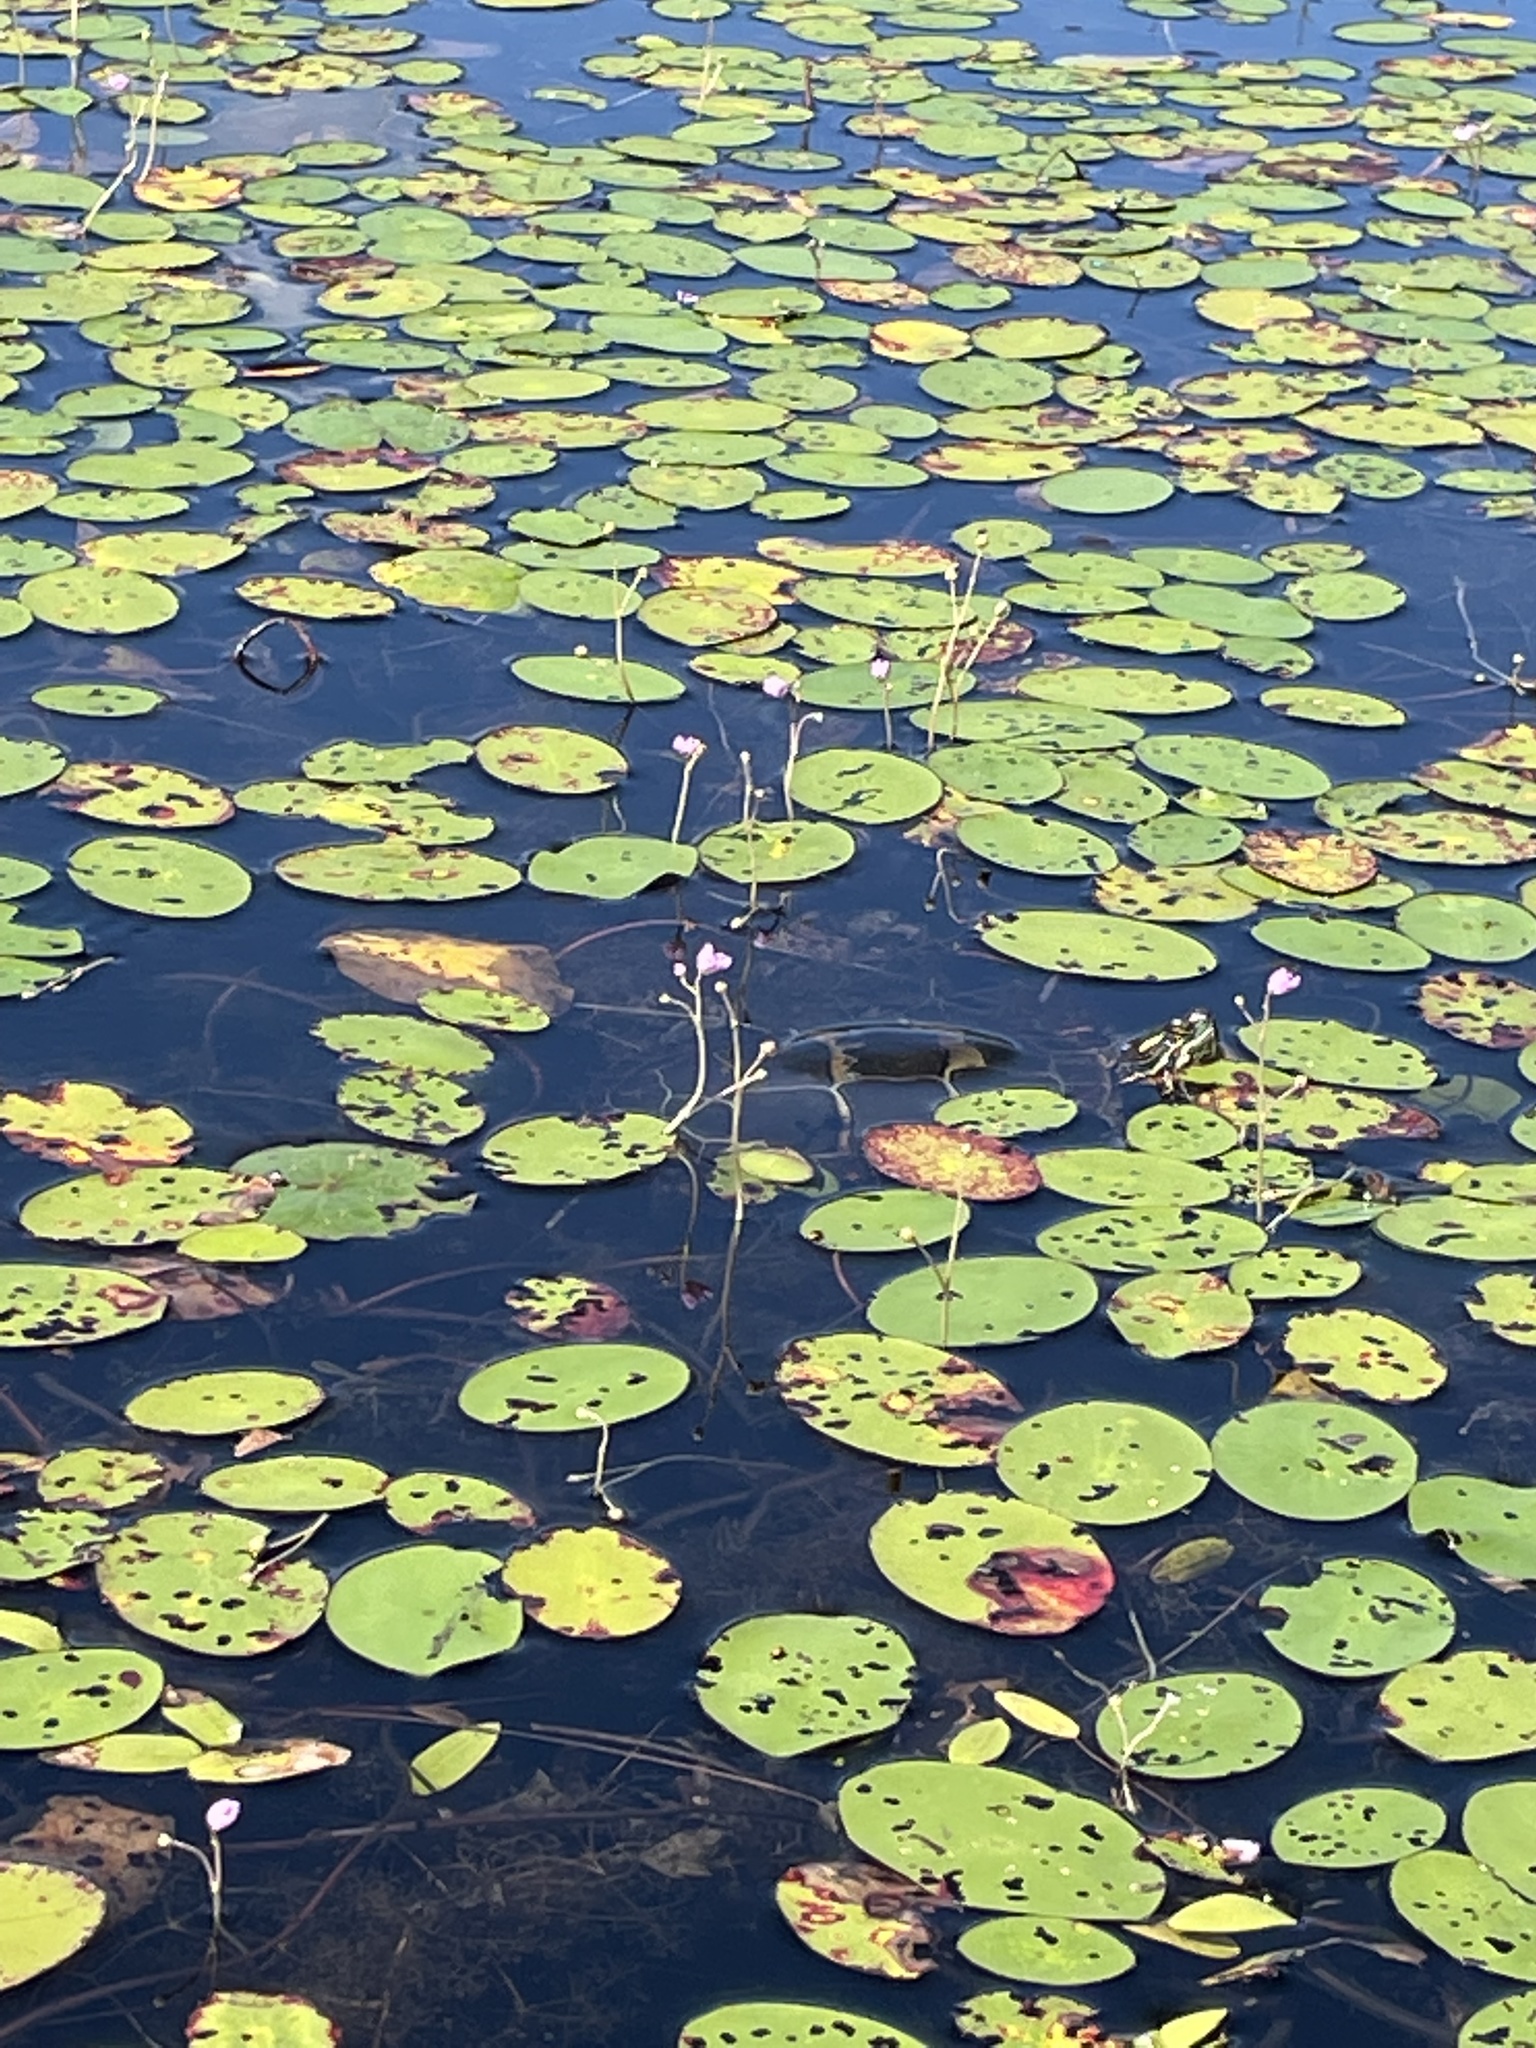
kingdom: Animalia
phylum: Chordata
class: Testudines
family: Emydidae
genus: Chrysemys
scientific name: Chrysemys picta
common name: Painted turtle
